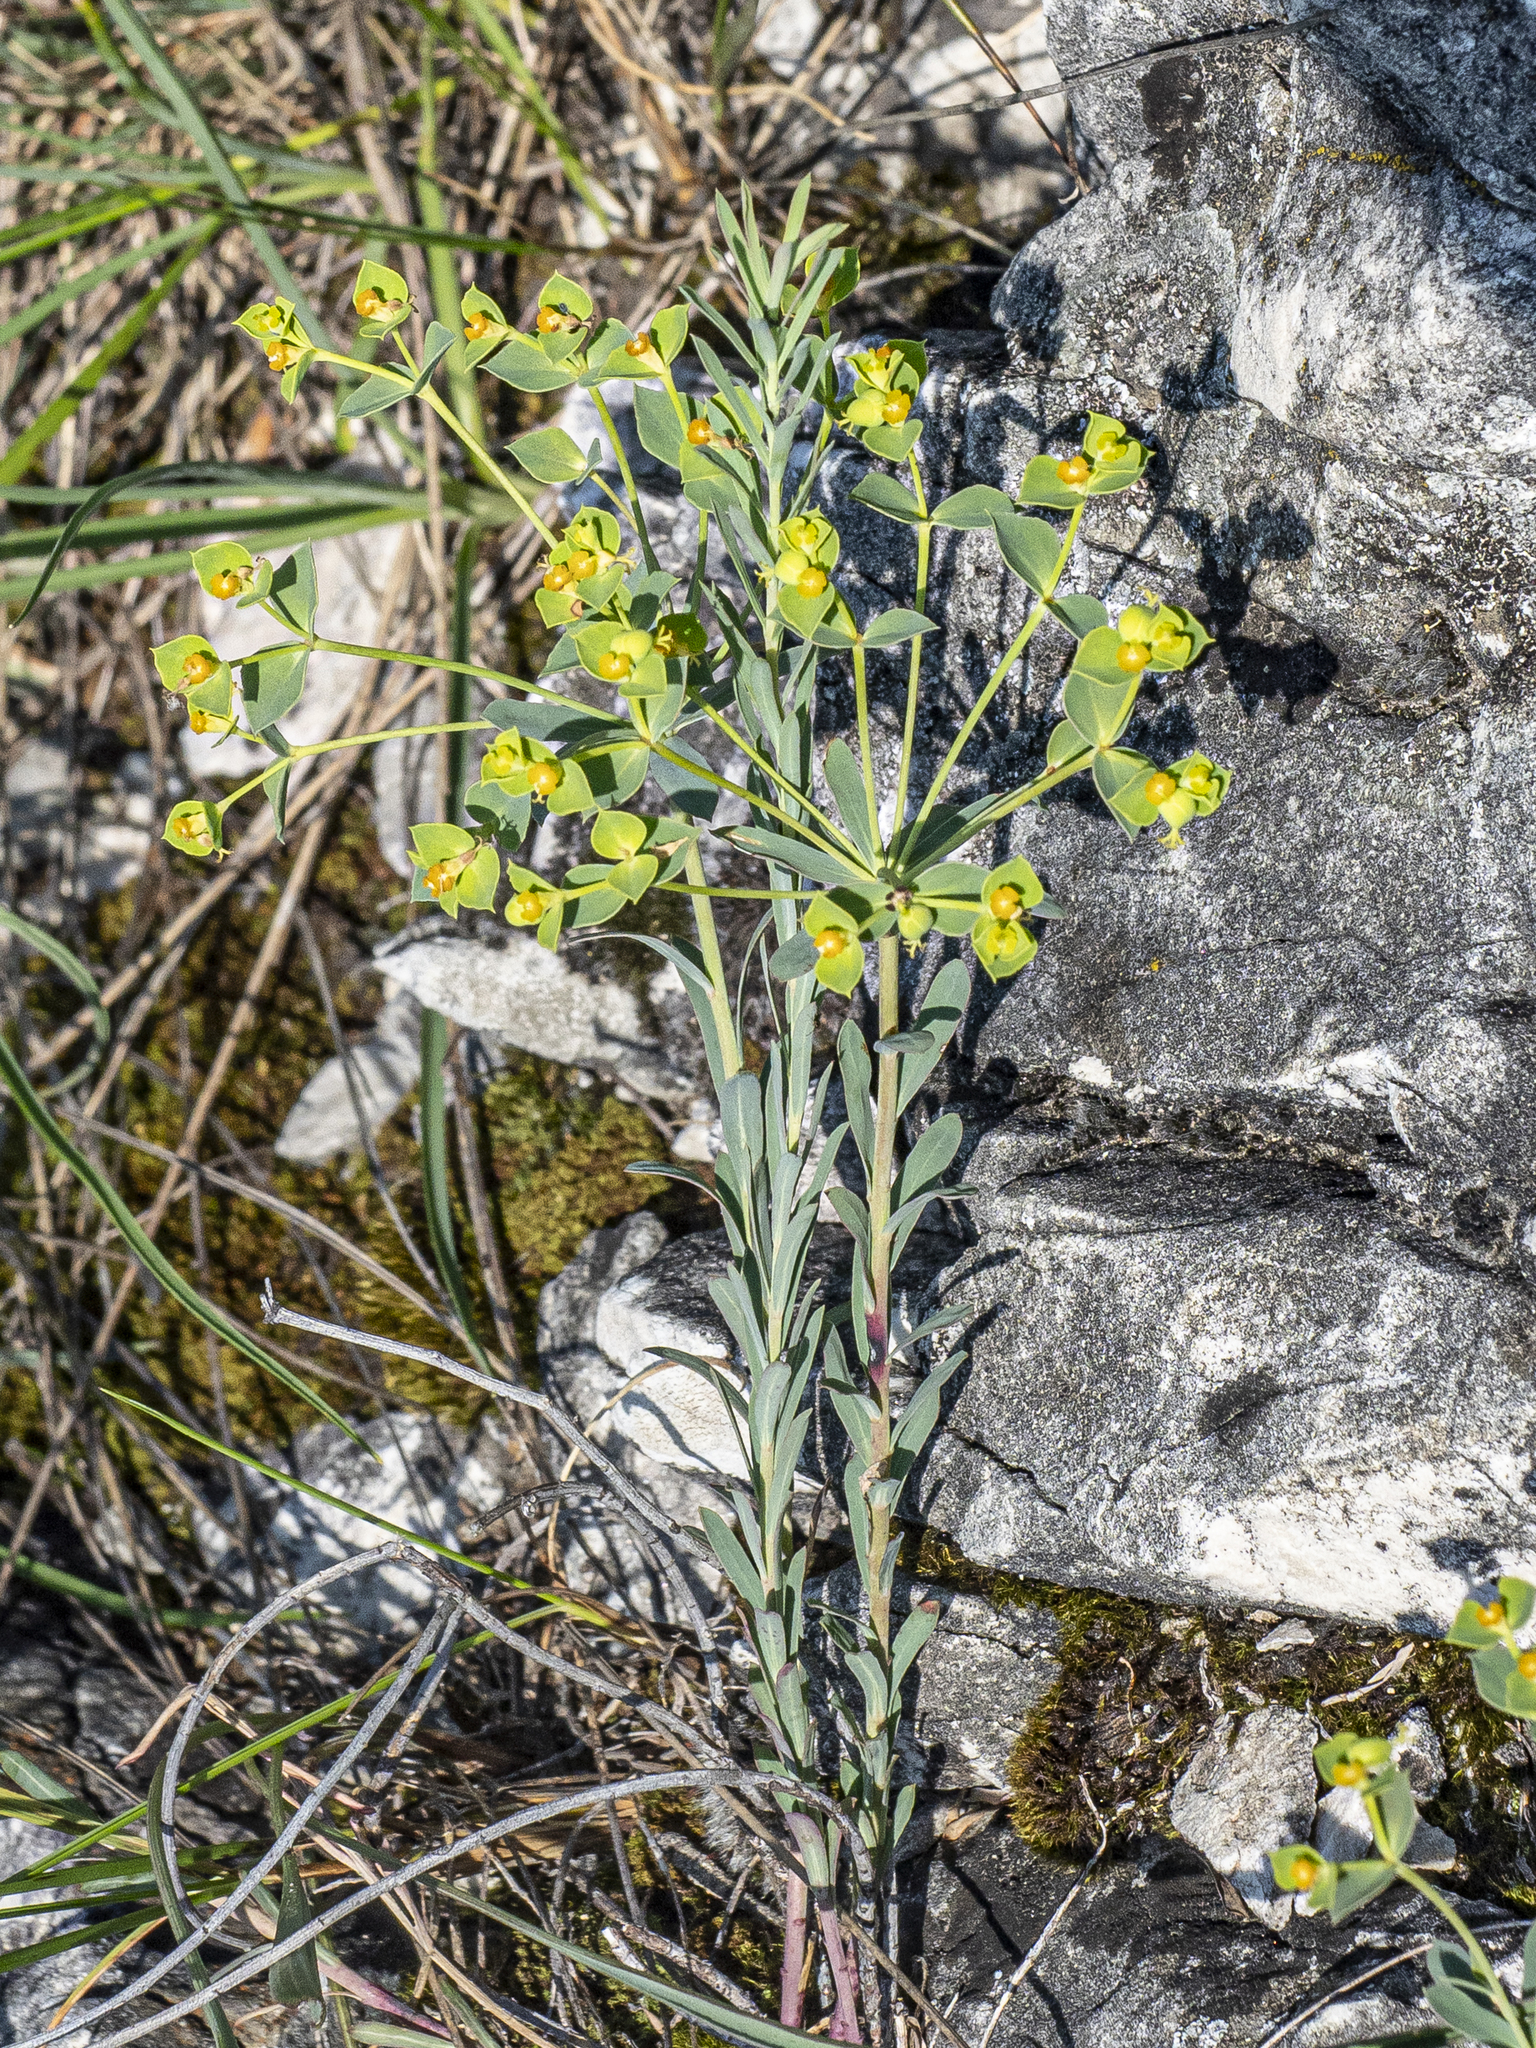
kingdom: Plantae
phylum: Tracheophyta
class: Magnoliopsida
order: Malpighiales
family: Euphorbiaceae
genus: Euphorbia
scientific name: Euphorbia seguieriana
